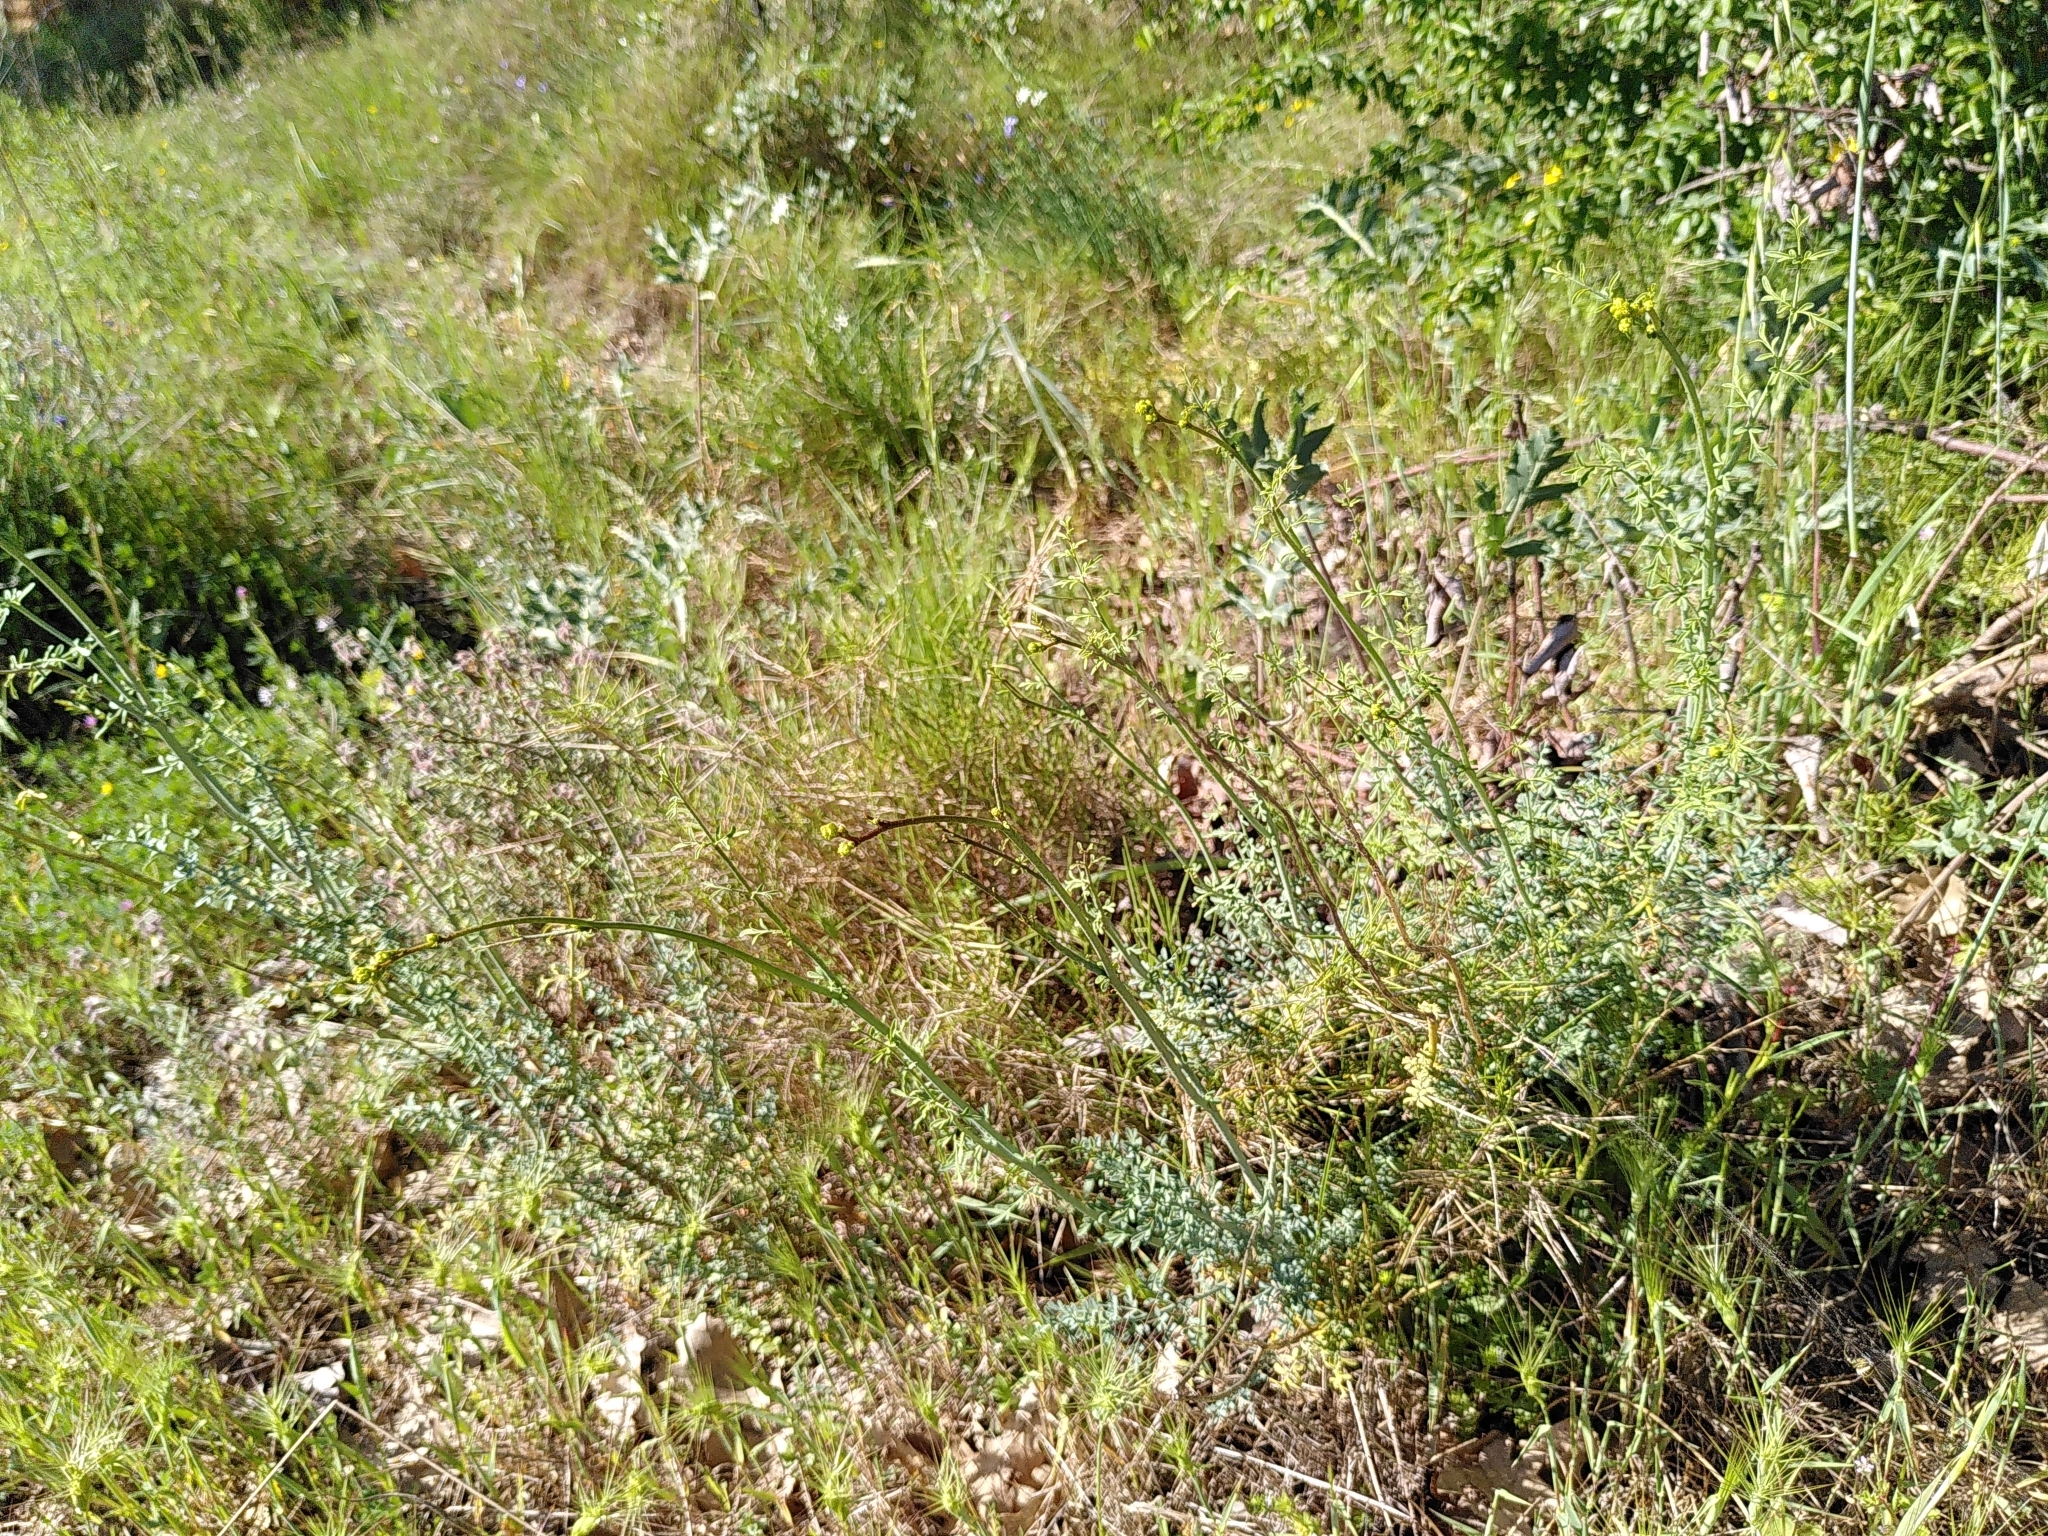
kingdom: Plantae
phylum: Tracheophyta
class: Magnoliopsida
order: Sapindales
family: Rutaceae
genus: Ruta
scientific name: Ruta angustifolia
